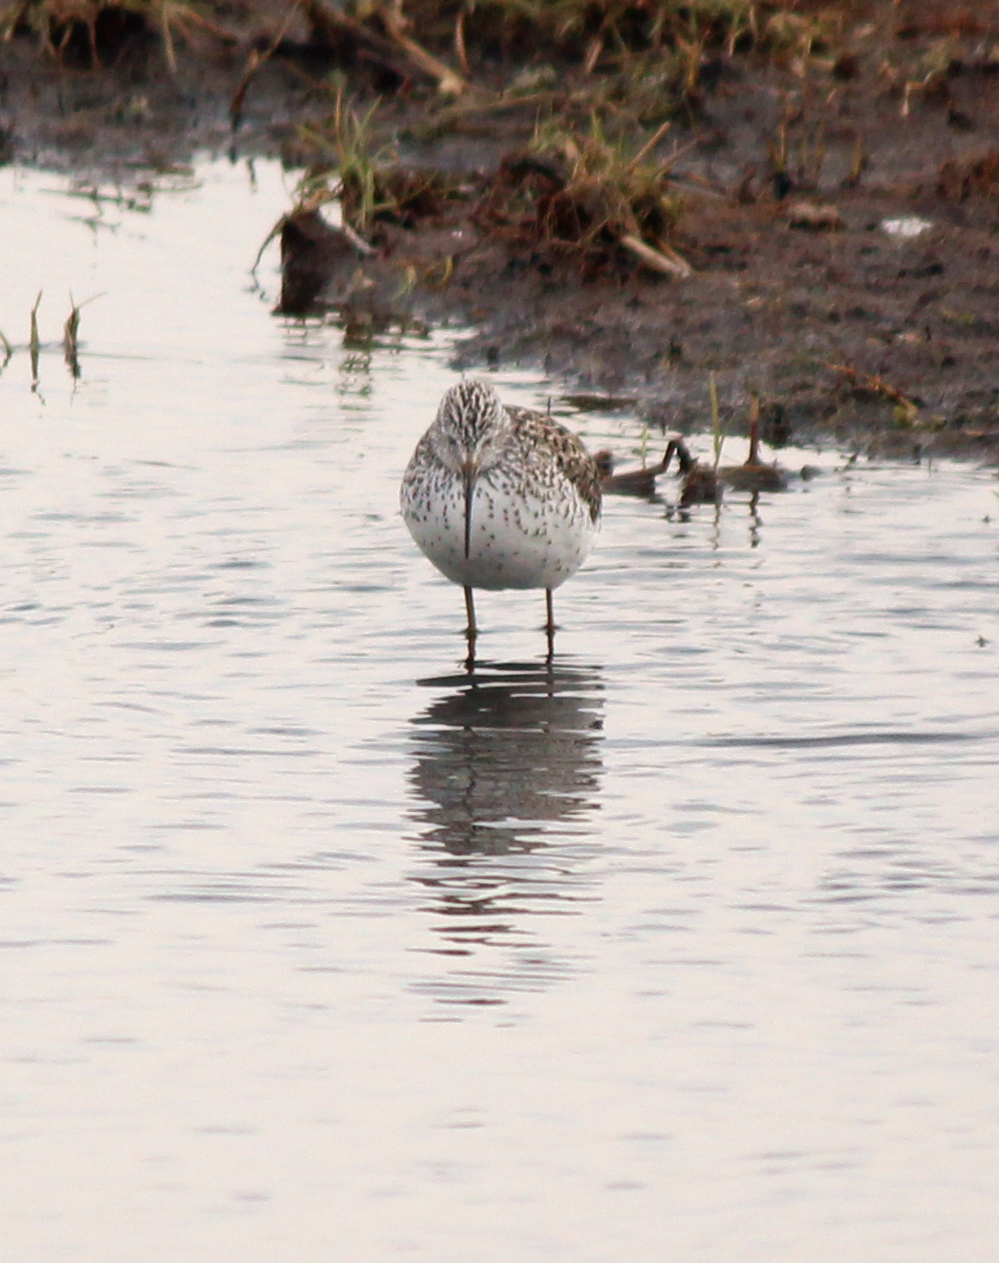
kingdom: Animalia
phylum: Chordata
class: Aves
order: Charadriiformes
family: Scolopacidae
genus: Tringa
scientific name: Tringa stagnatilis
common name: Marsh sandpiper
